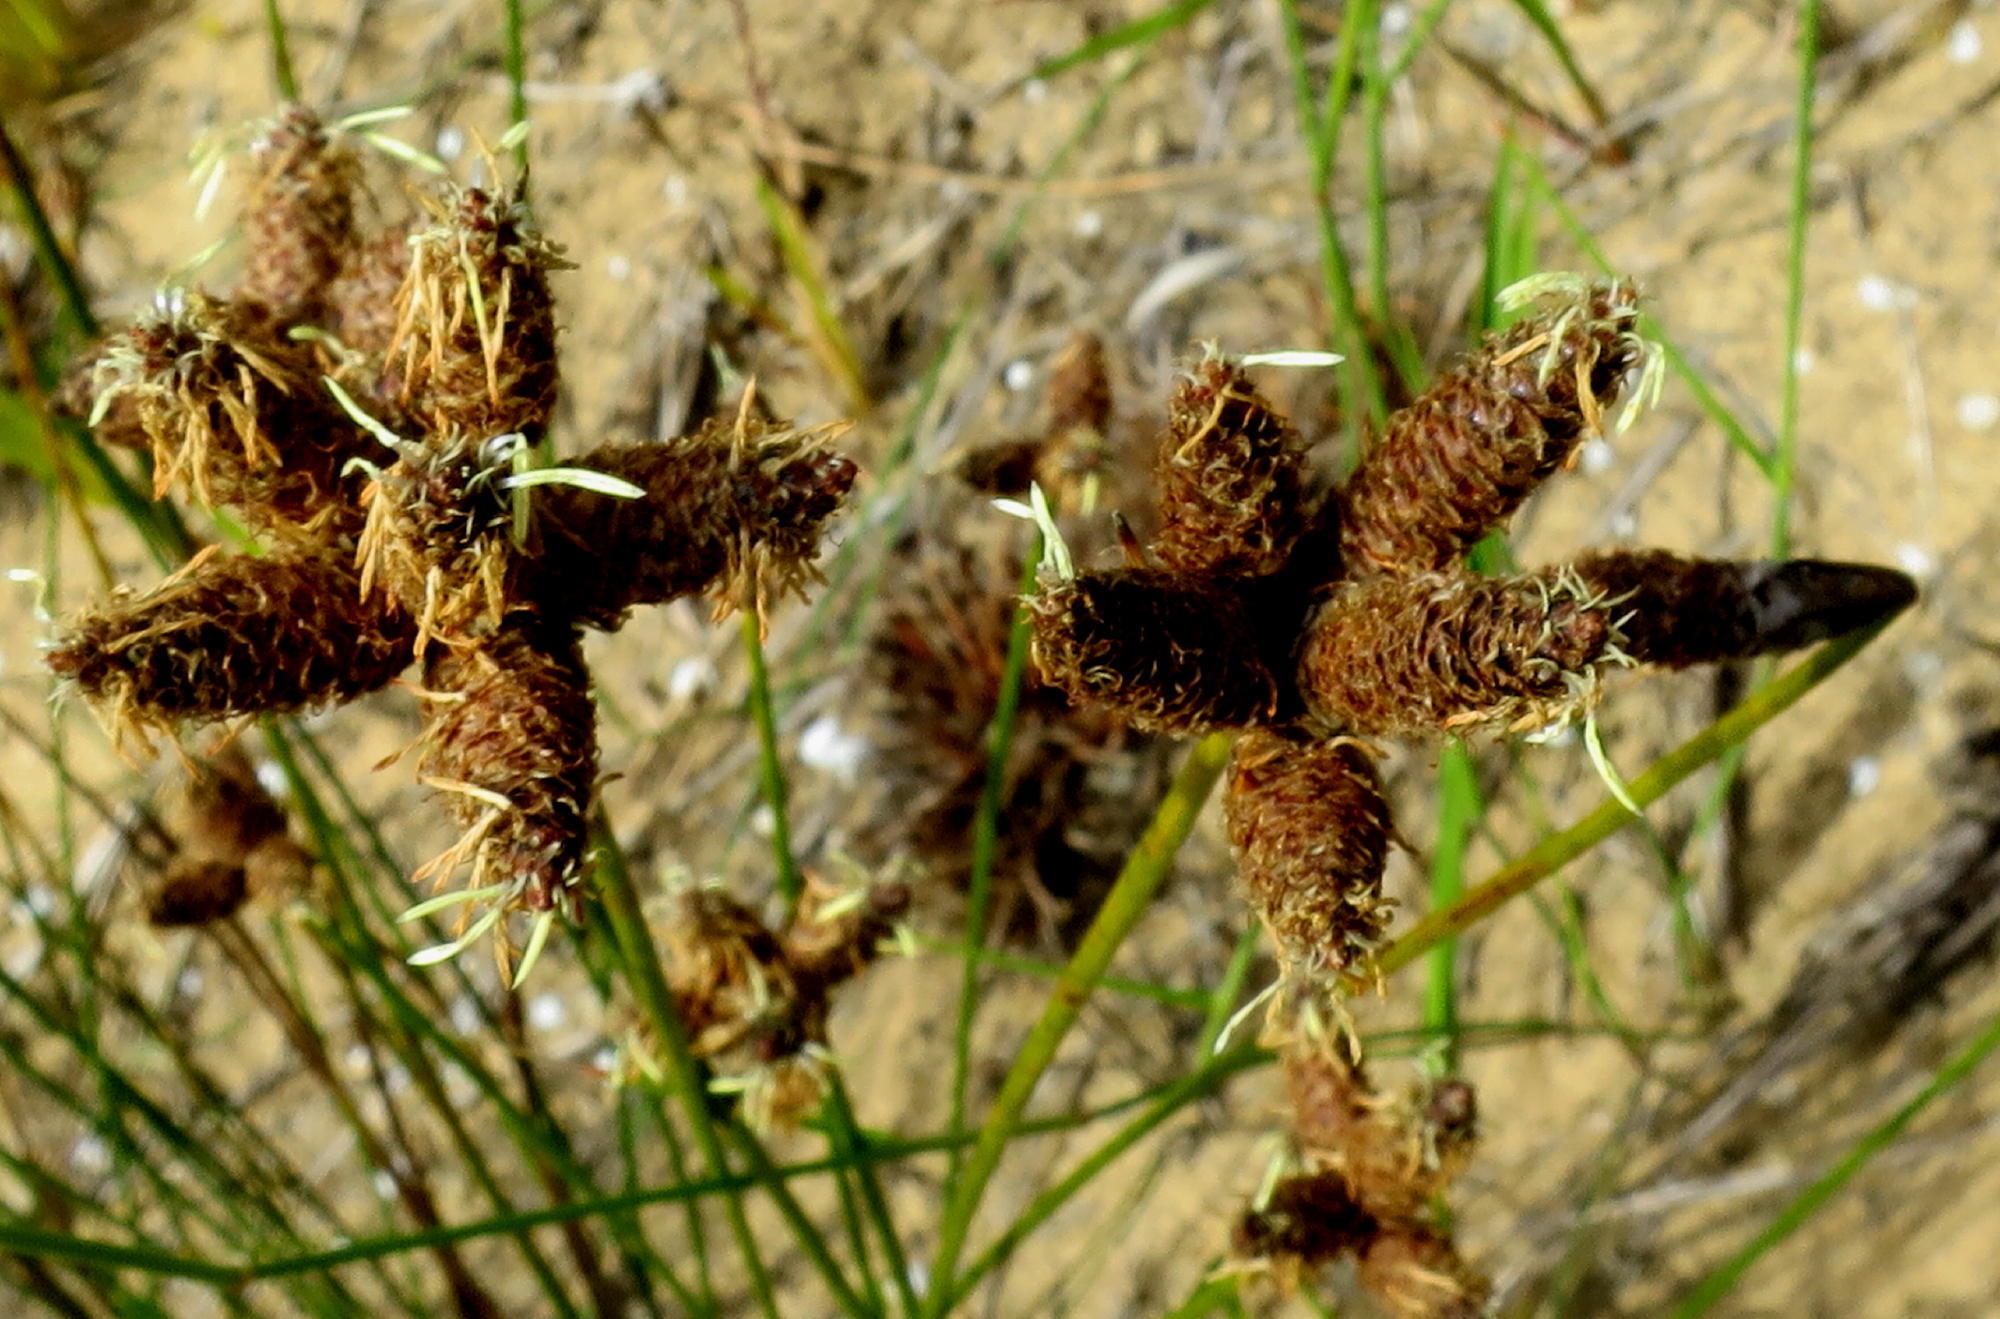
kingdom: Plantae
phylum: Tracheophyta
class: Liliopsida
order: Poales
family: Cyperaceae
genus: Hellmuthia
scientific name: Hellmuthia membranacea
